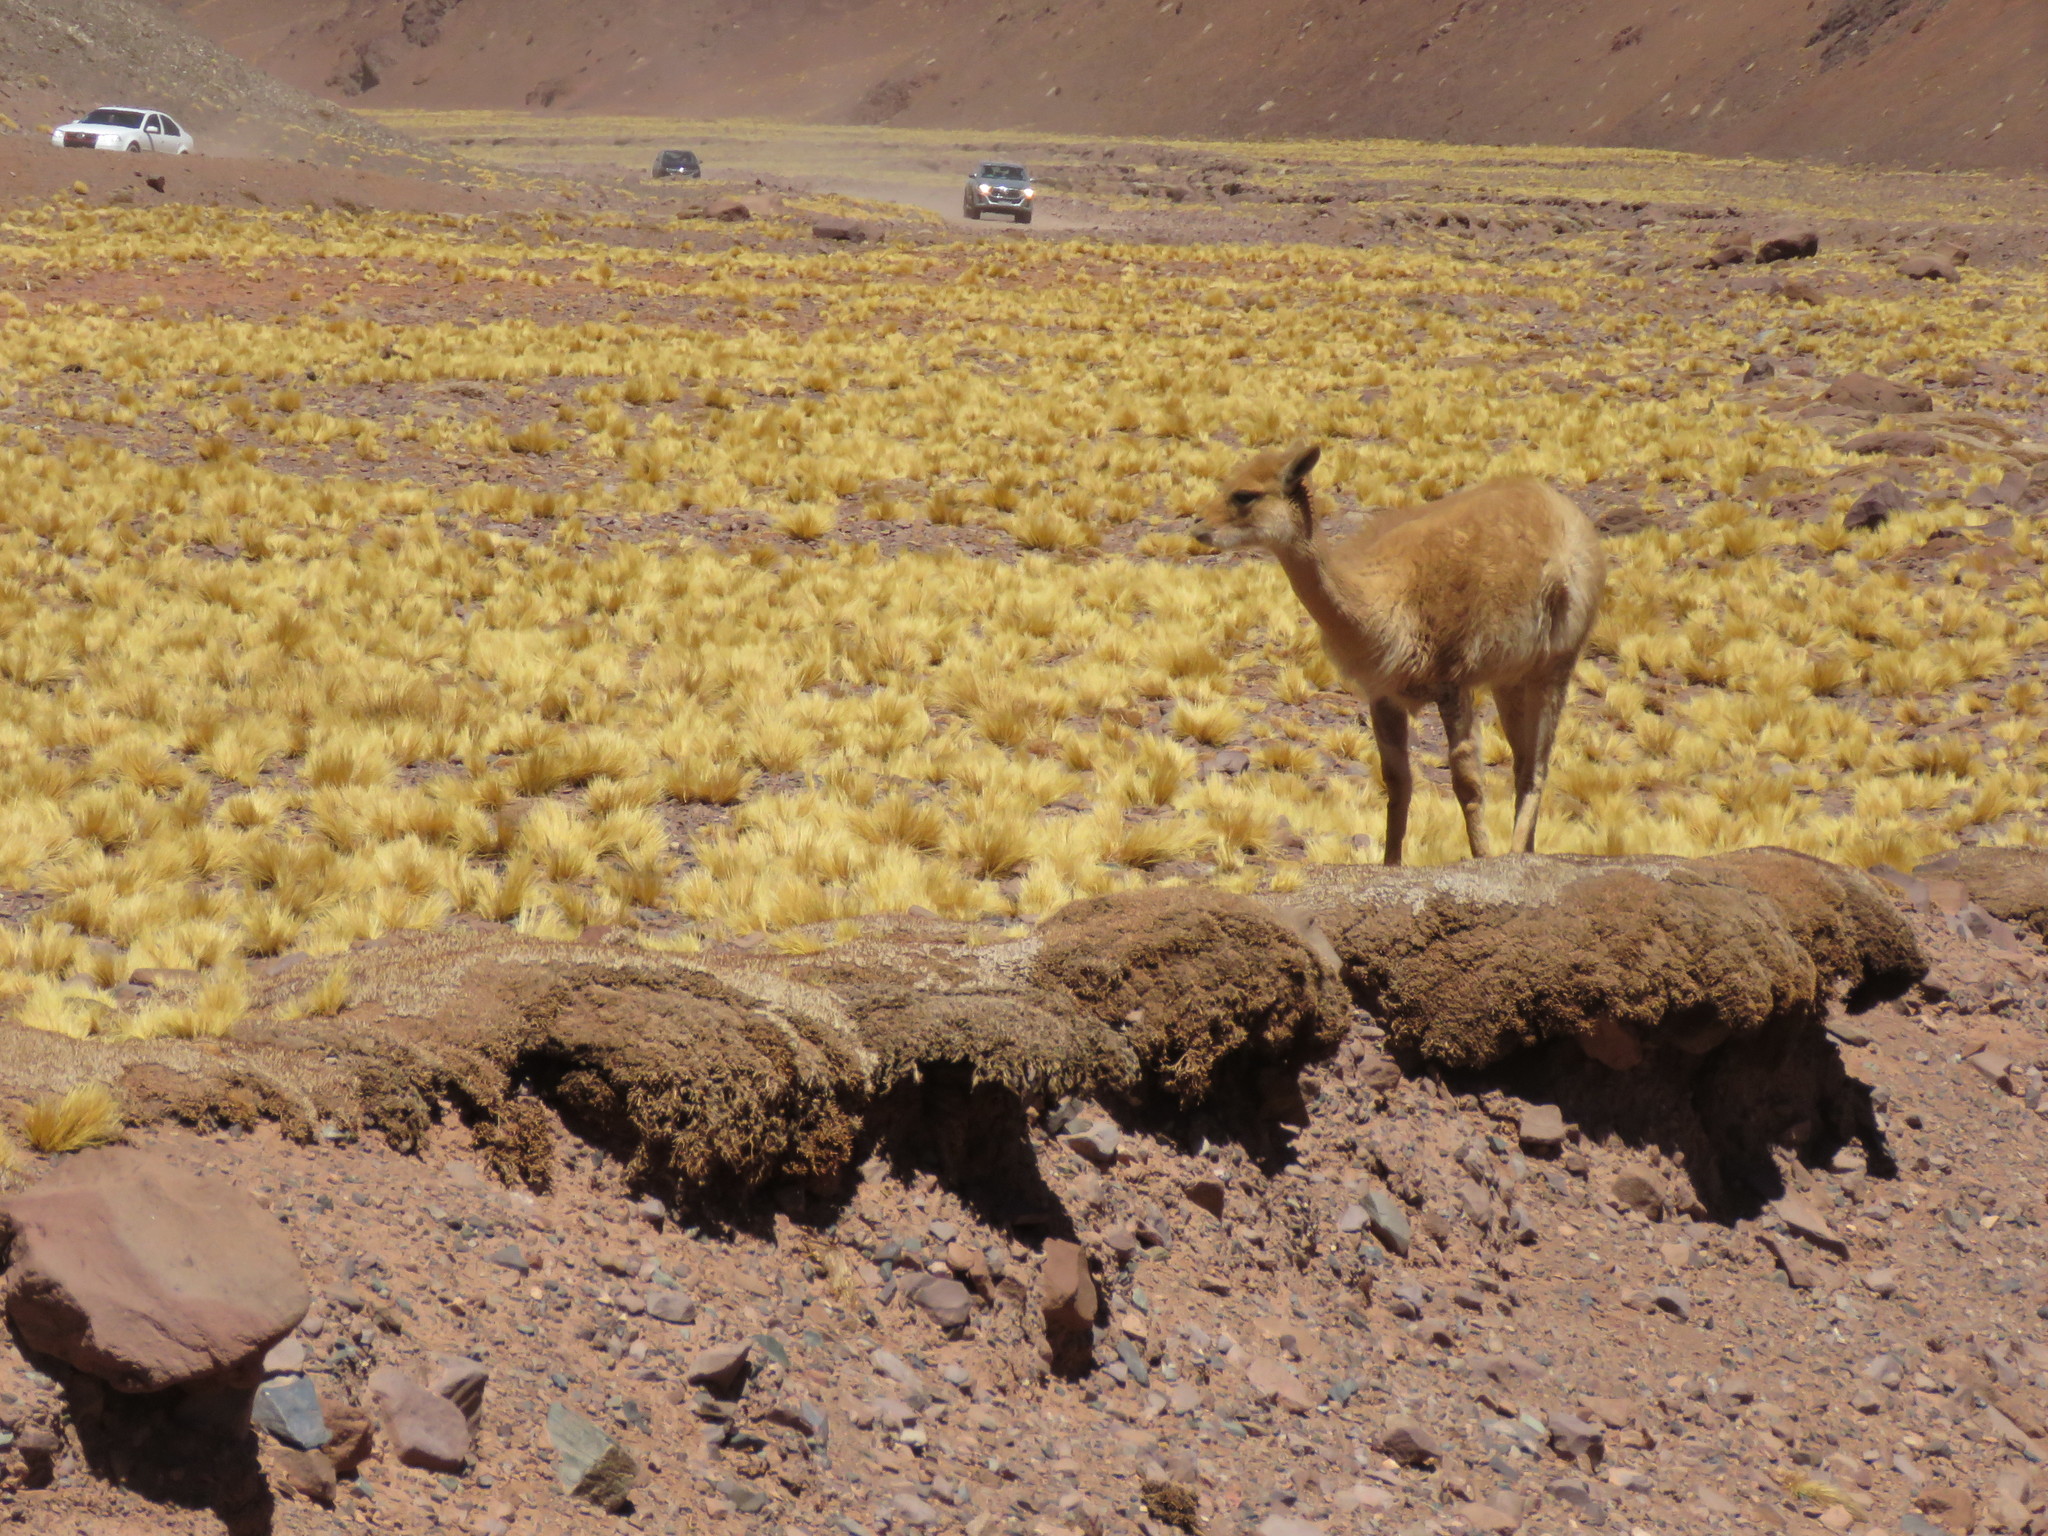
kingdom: Animalia
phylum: Chordata
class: Mammalia
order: Artiodactyla
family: Camelidae
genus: Vicugna
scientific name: Vicugna vicugna
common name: Vicugna
